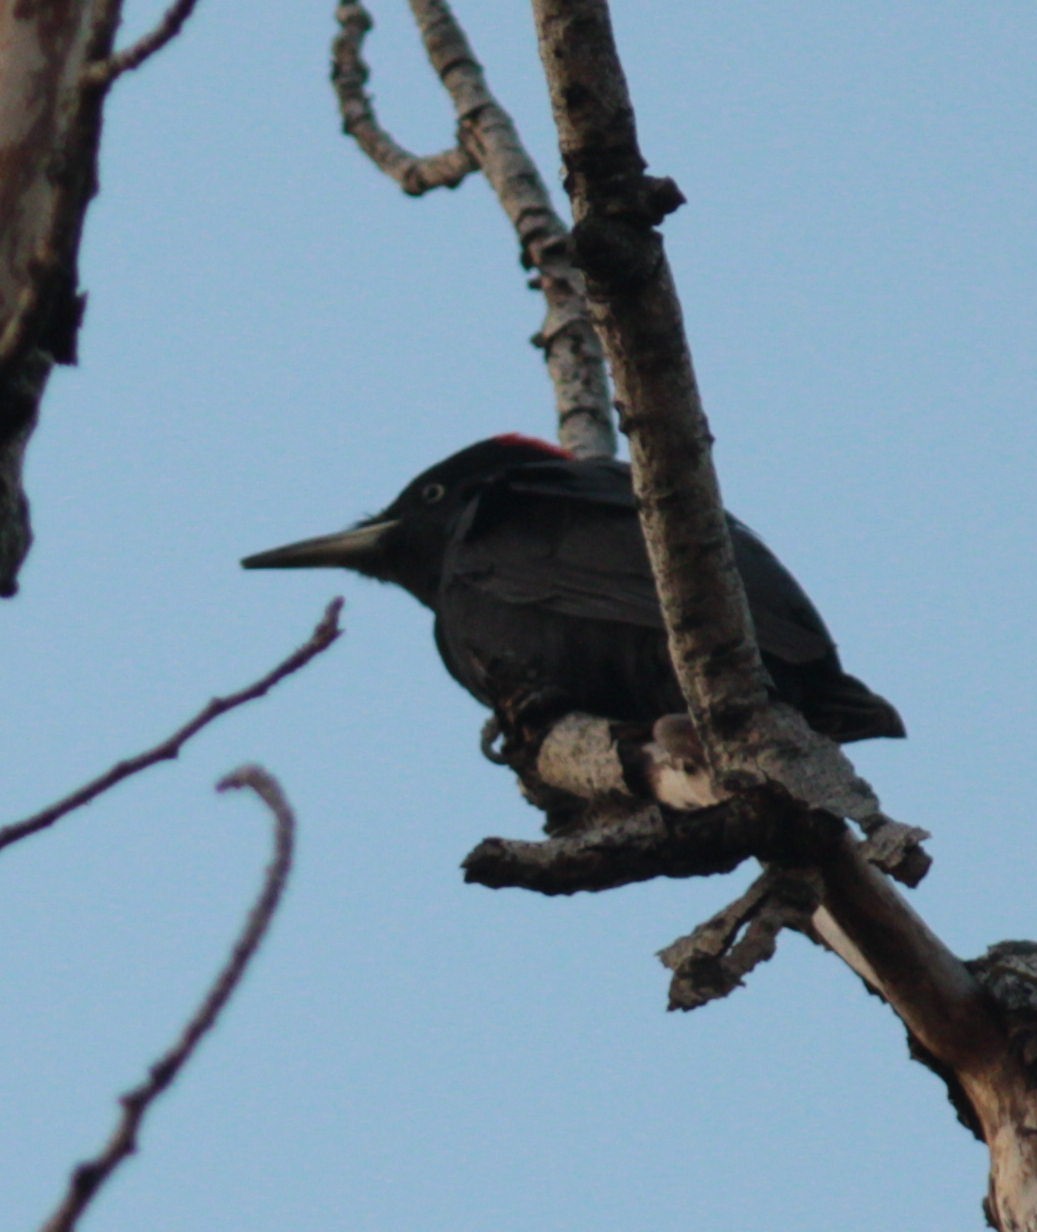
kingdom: Animalia
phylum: Chordata
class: Aves
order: Piciformes
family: Picidae
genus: Dryocopus
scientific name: Dryocopus martius
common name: Black woodpecker
